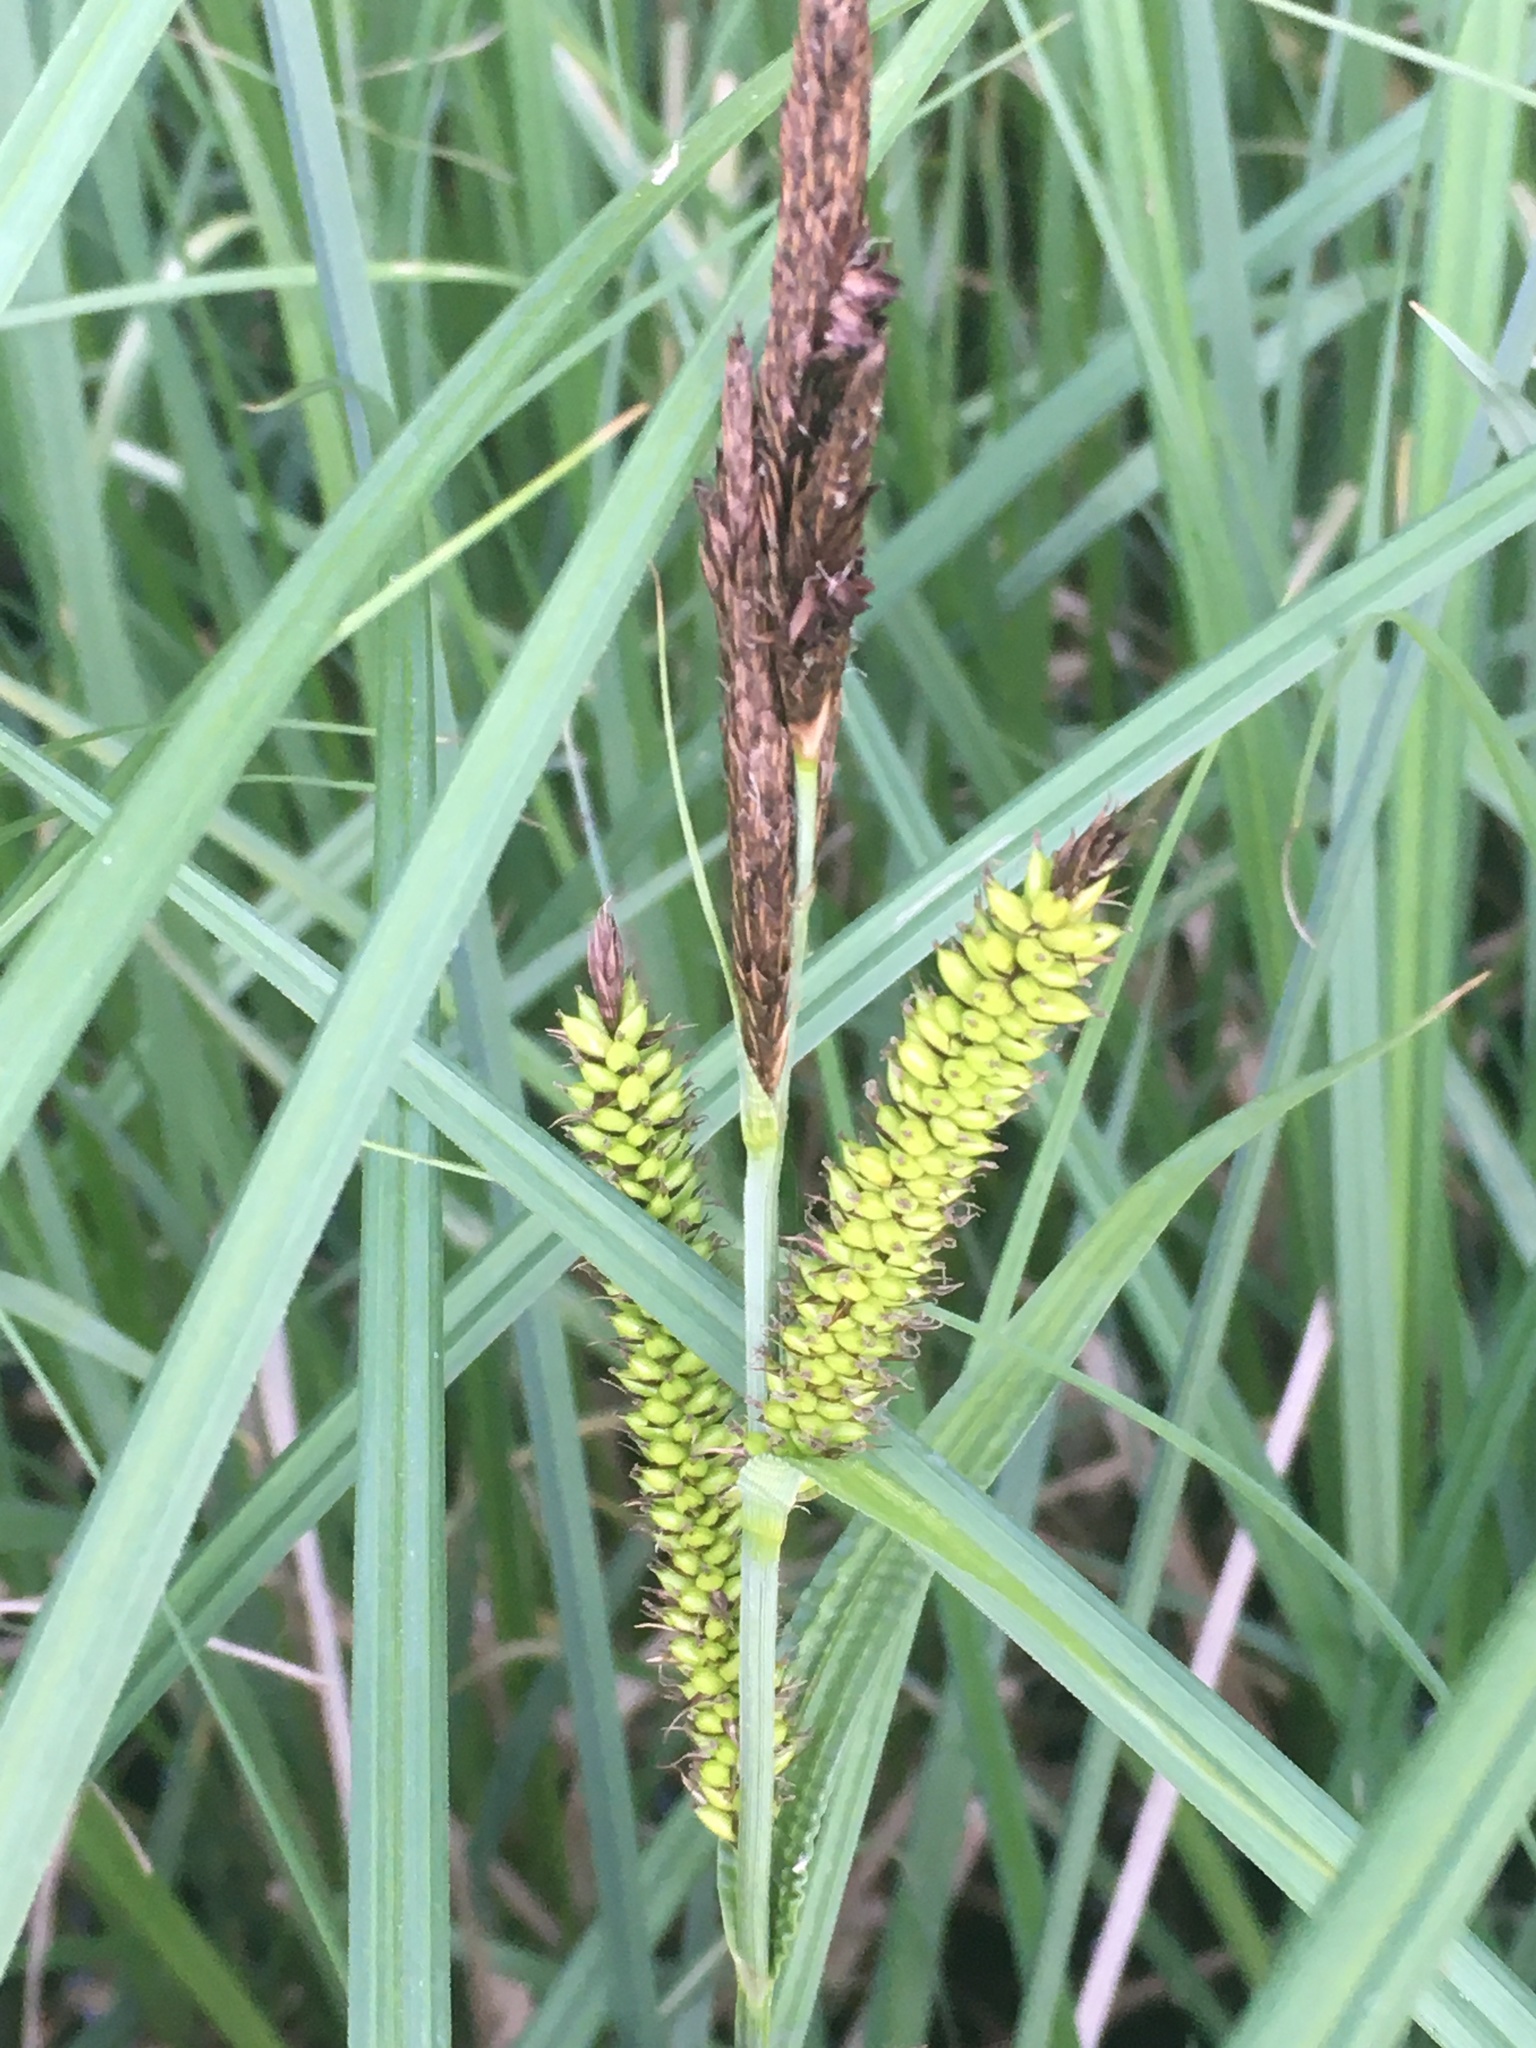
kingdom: Plantae
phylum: Tracheophyta
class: Liliopsida
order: Poales
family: Cyperaceae
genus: Carex
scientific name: Carex riparia
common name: Greater pond-sedge
